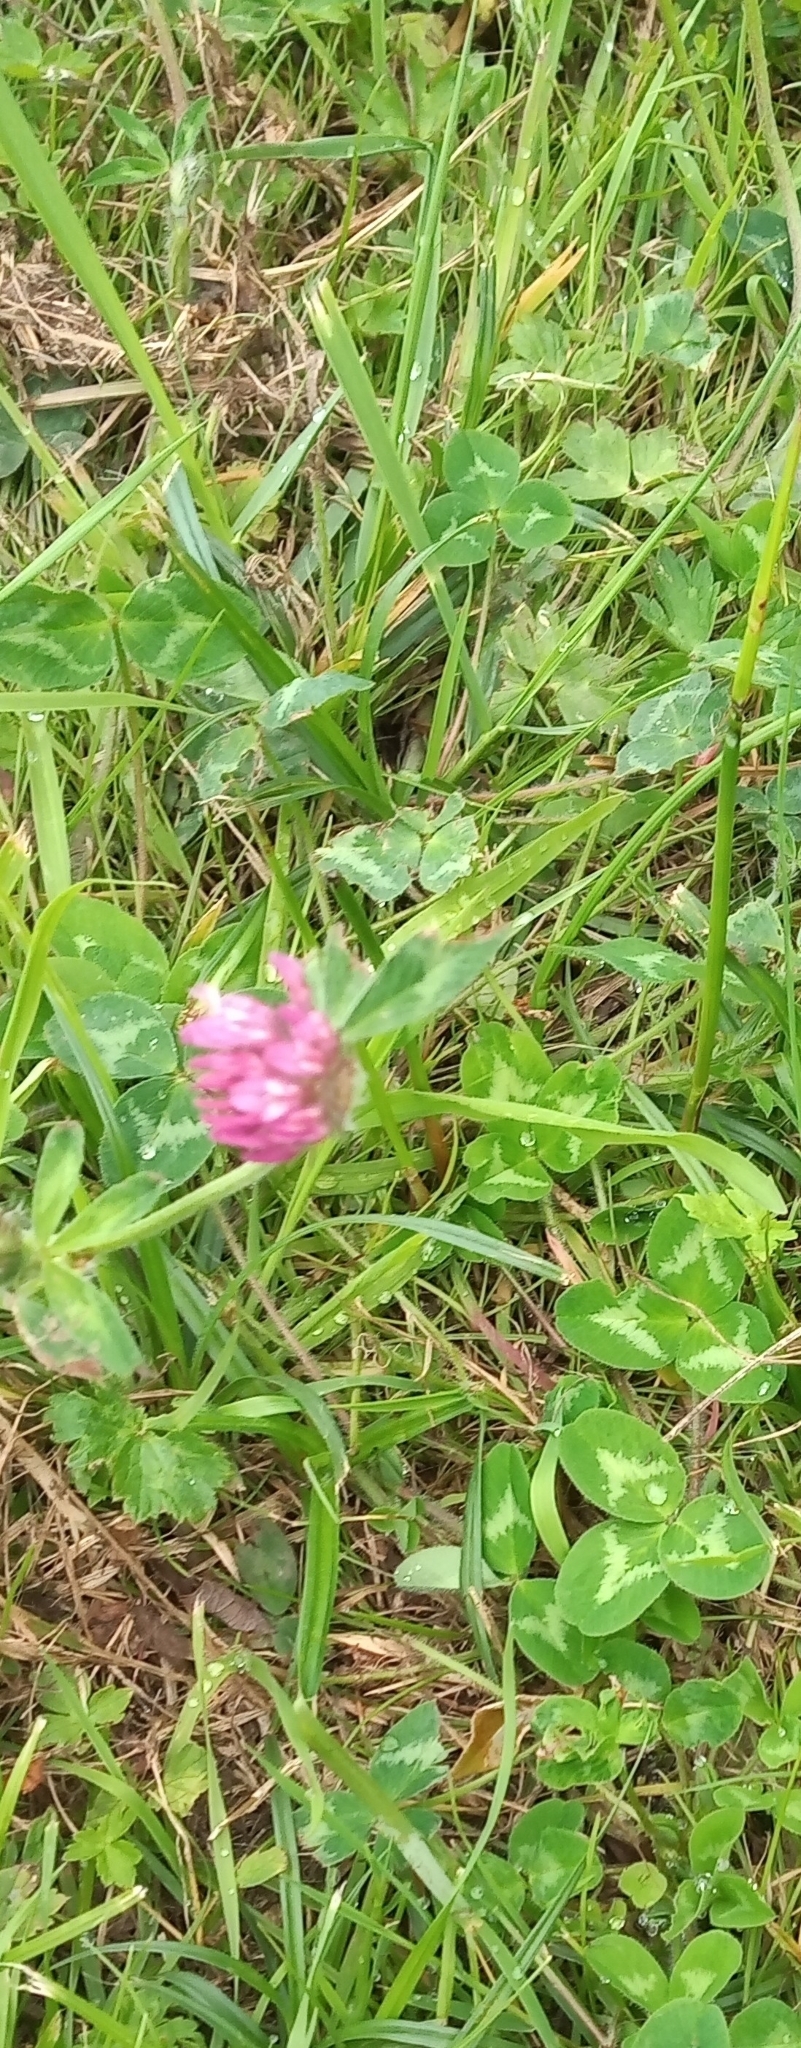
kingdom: Plantae
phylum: Tracheophyta
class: Magnoliopsida
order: Fabales
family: Fabaceae
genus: Trifolium
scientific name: Trifolium pratense
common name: Red clover
